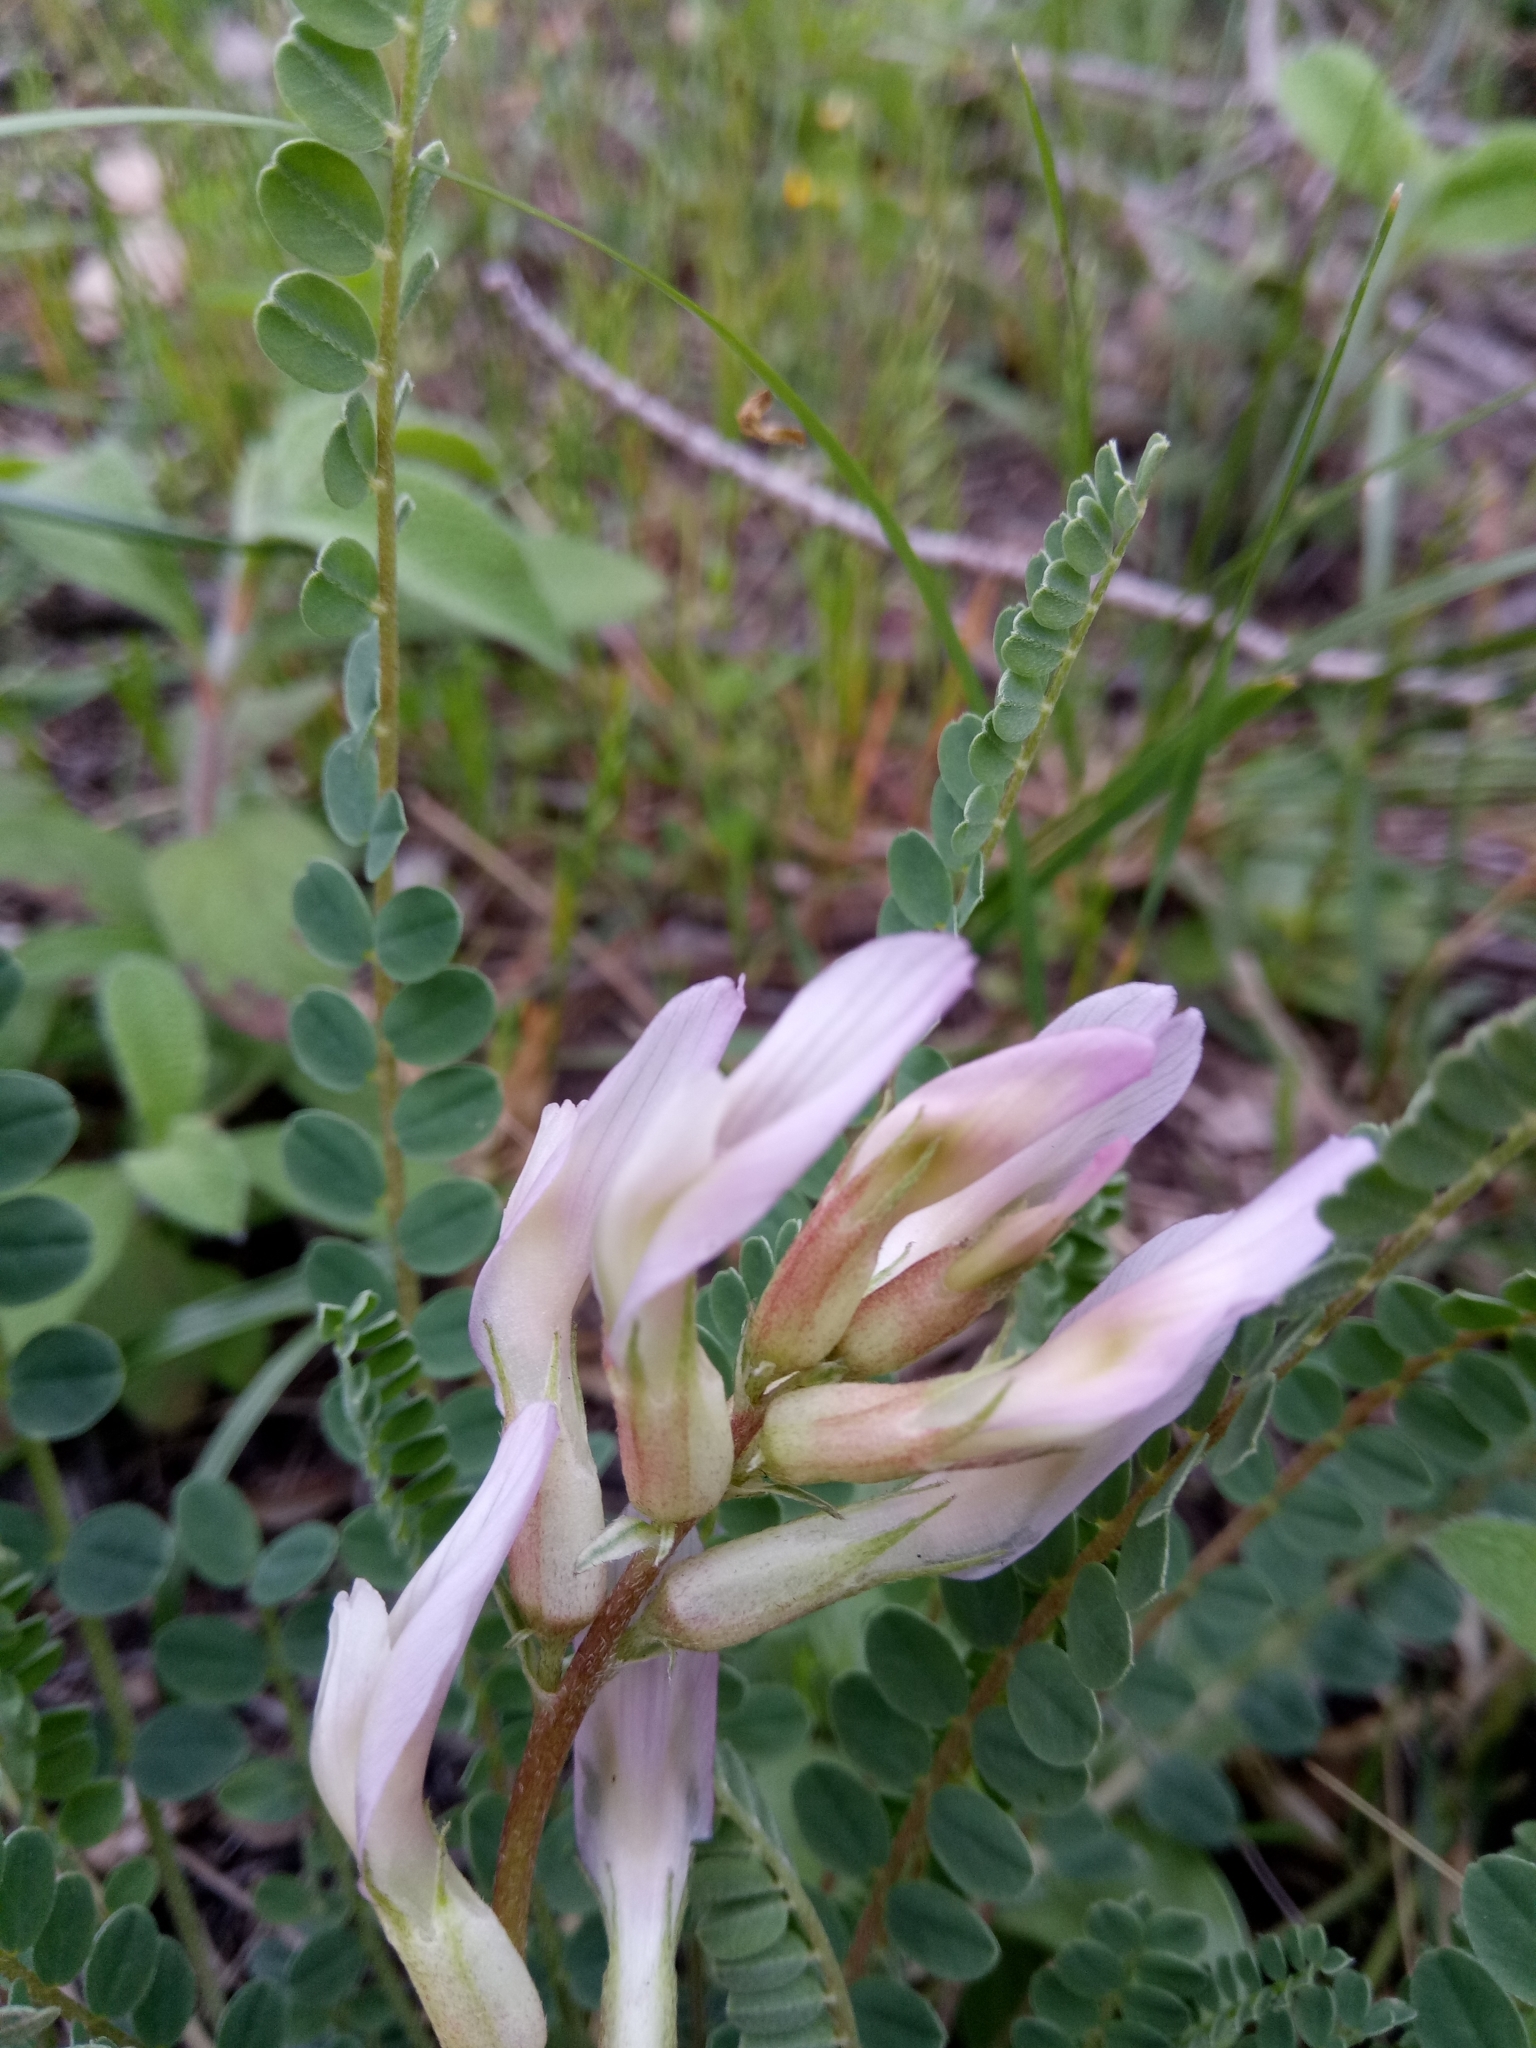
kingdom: Plantae
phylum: Tracheophyta
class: Magnoliopsida
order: Fabales
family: Fabaceae
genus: Astragalus
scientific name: Astragalus monspessulanus
